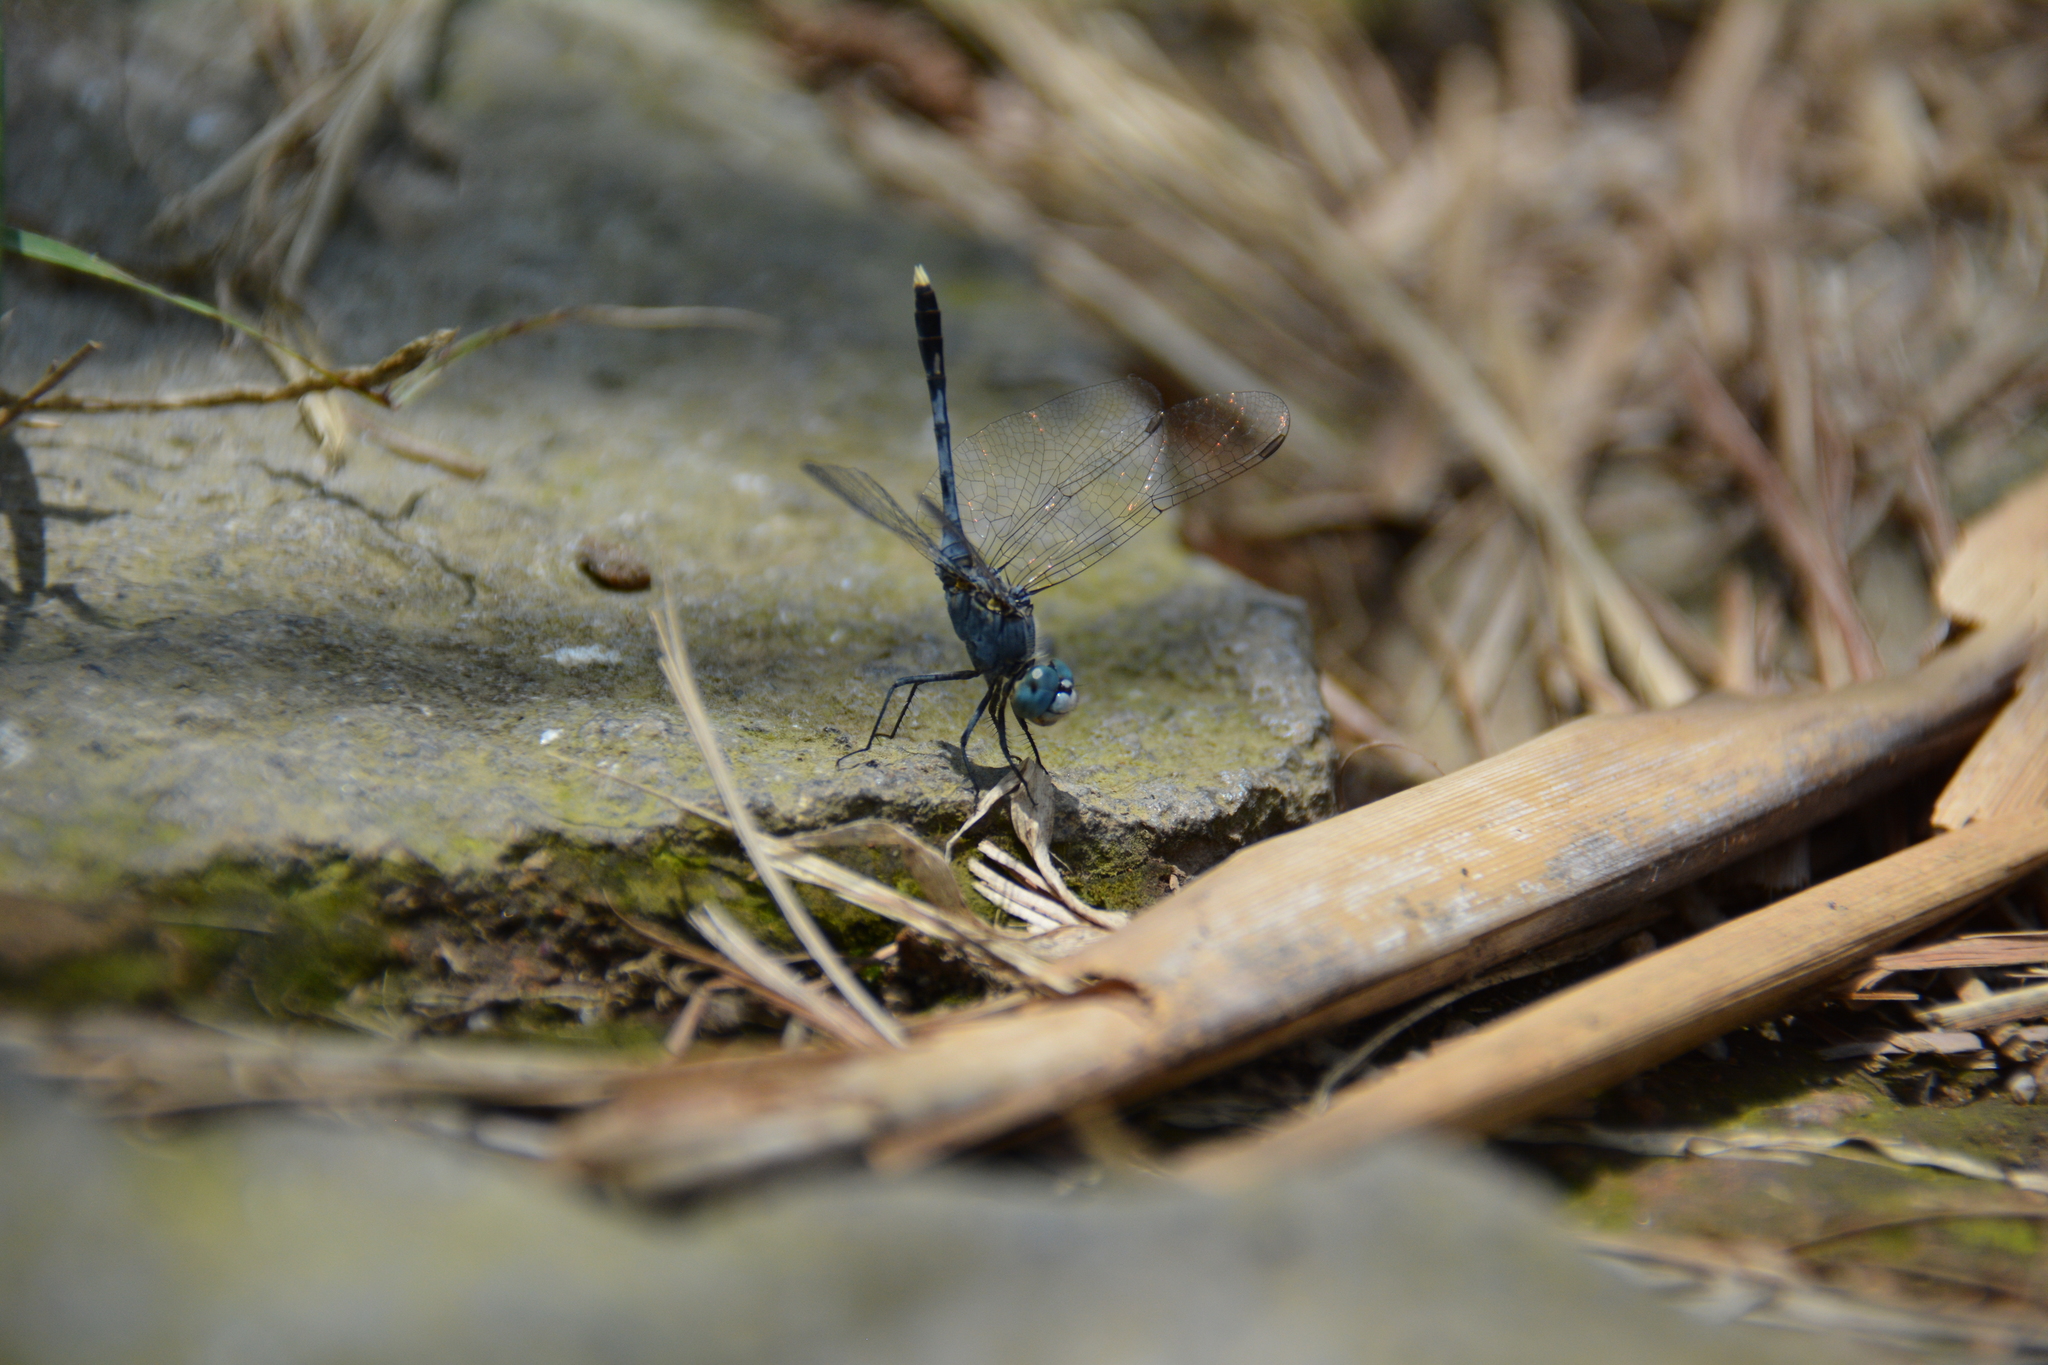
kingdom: Animalia
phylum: Arthropoda
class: Insecta
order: Odonata
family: Libellulidae
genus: Diplacodes
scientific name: Diplacodes trivialis
